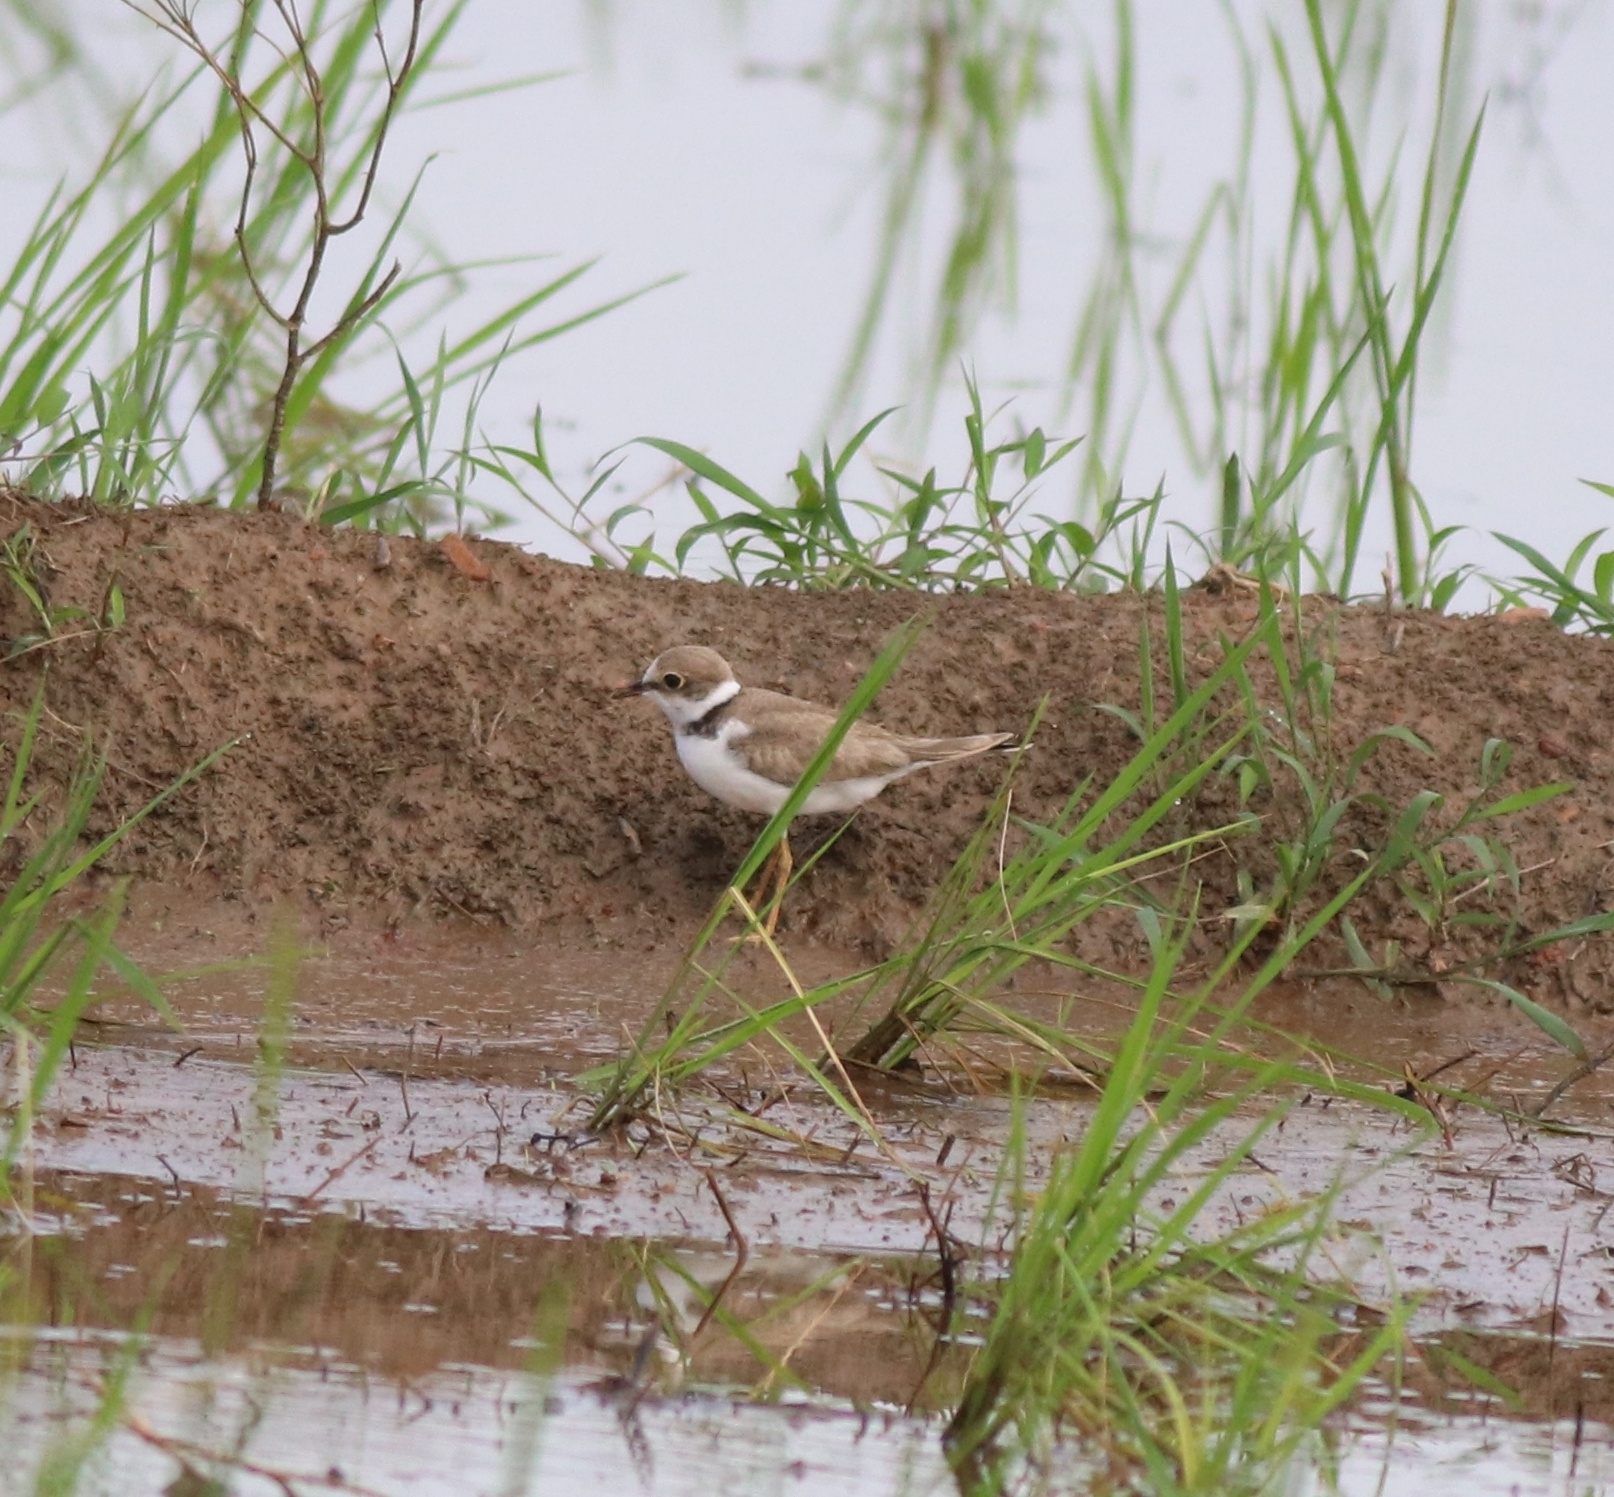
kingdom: Animalia
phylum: Chordata
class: Aves
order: Charadriiformes
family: Charadriidae
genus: Charadrius
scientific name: Charadrius dubius
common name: Little ringed plover
